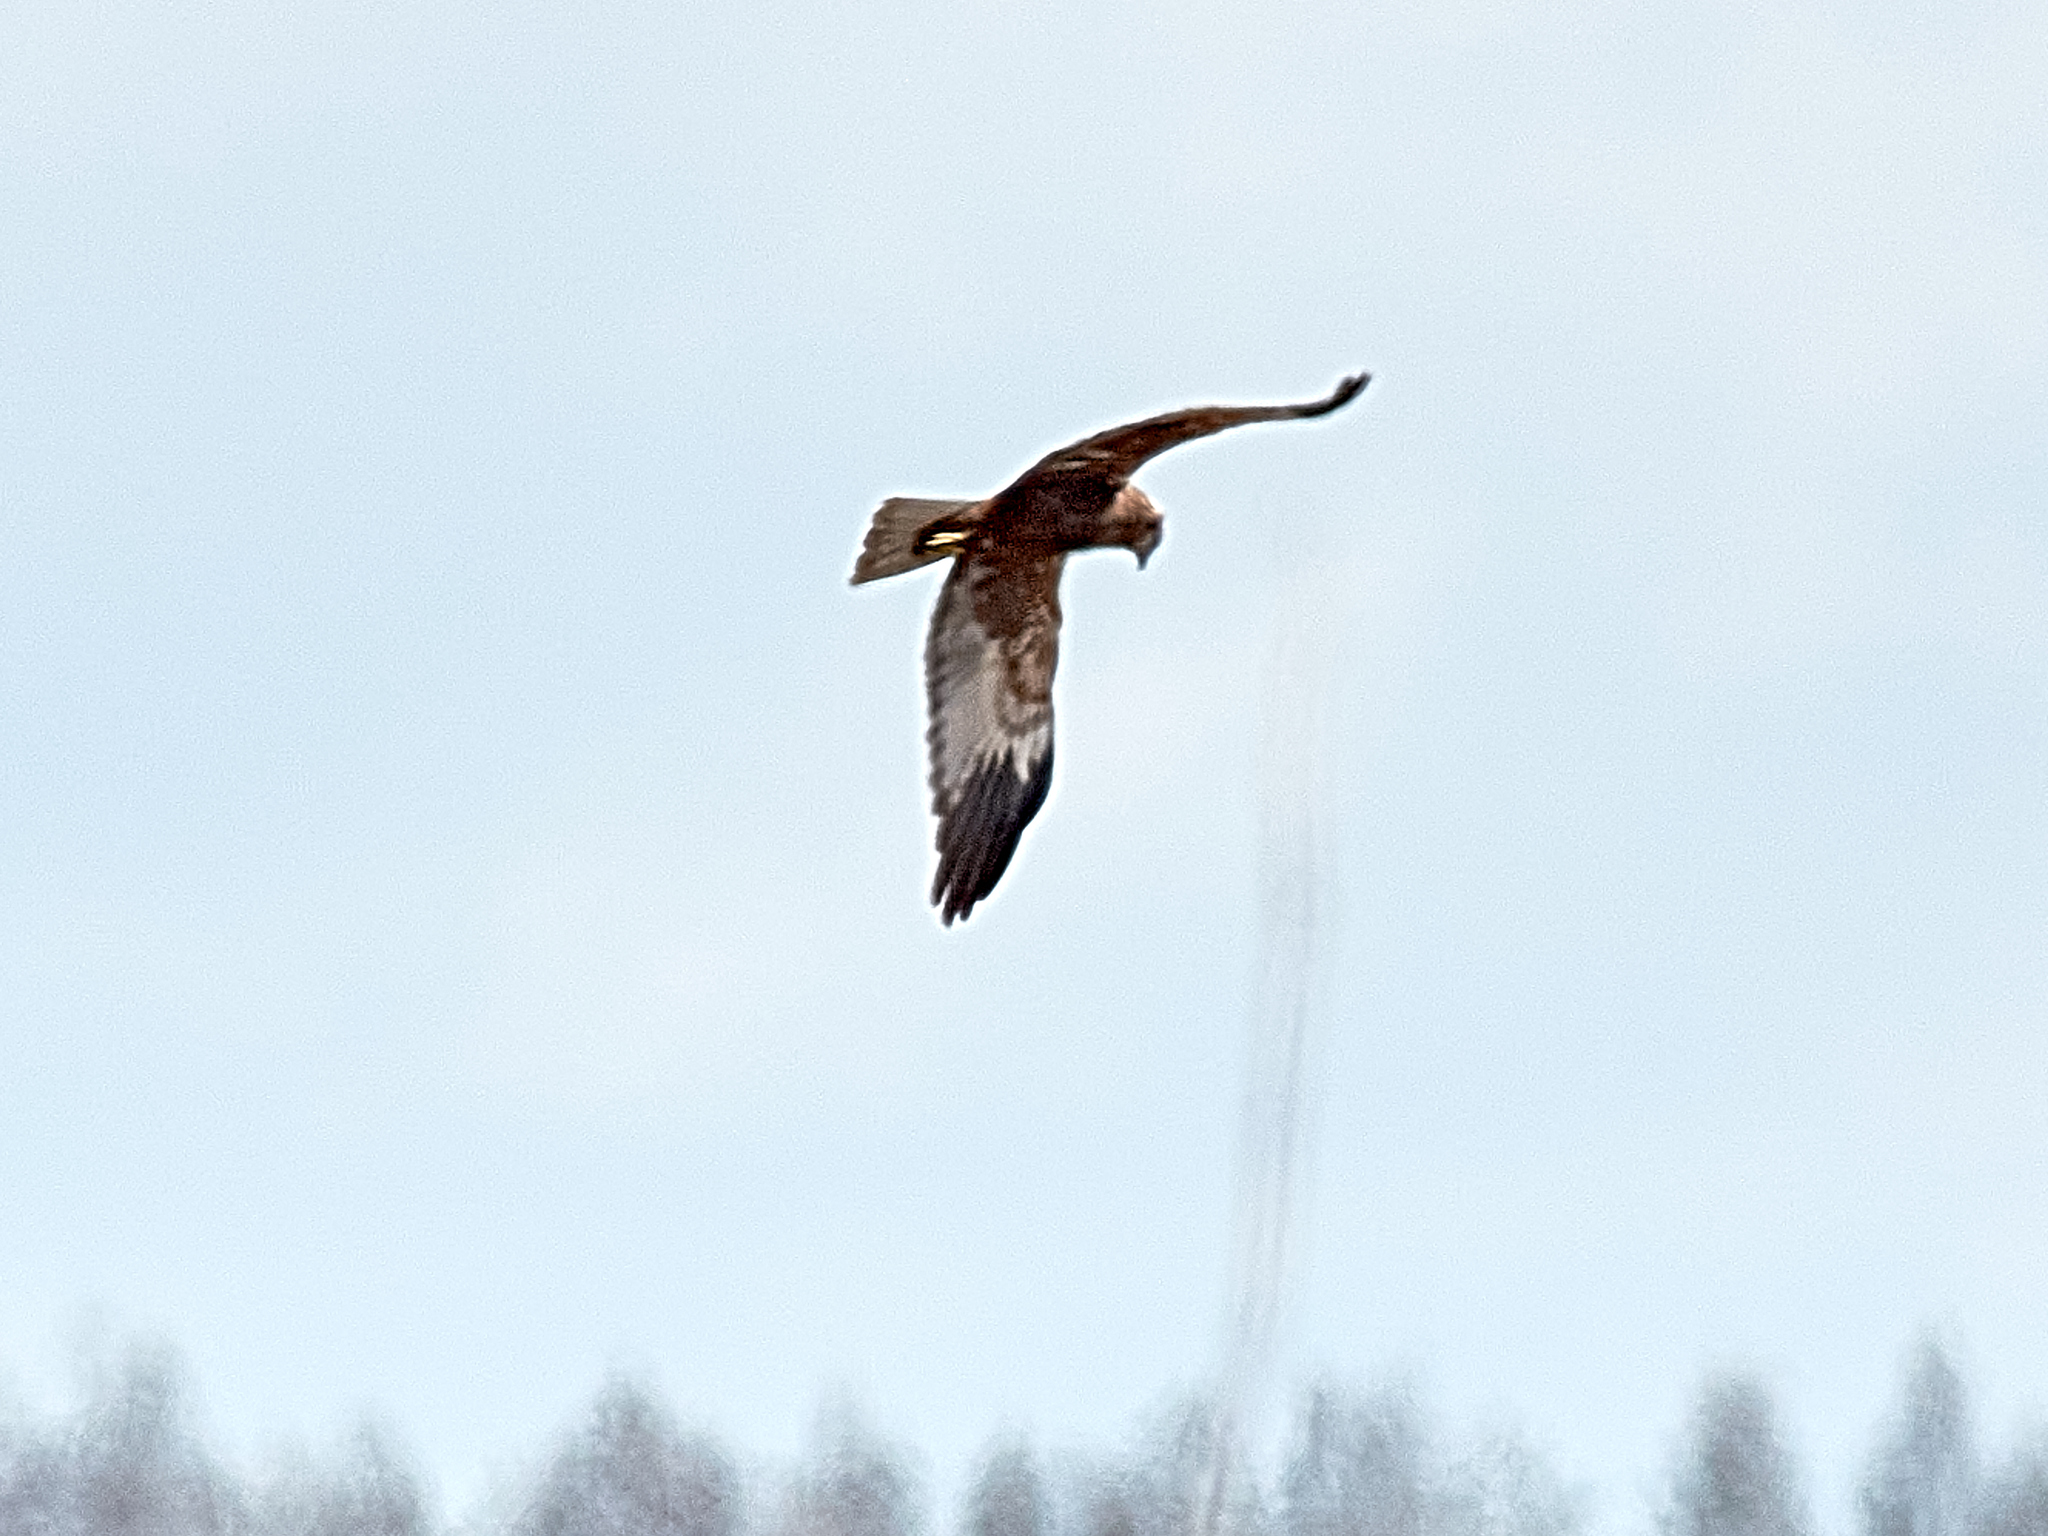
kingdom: Animalia
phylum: Chordata
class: Aves
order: Accipitriformes
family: Accipitridae
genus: Circus
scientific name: Circus aeruginosus
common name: Western marsh harrier
